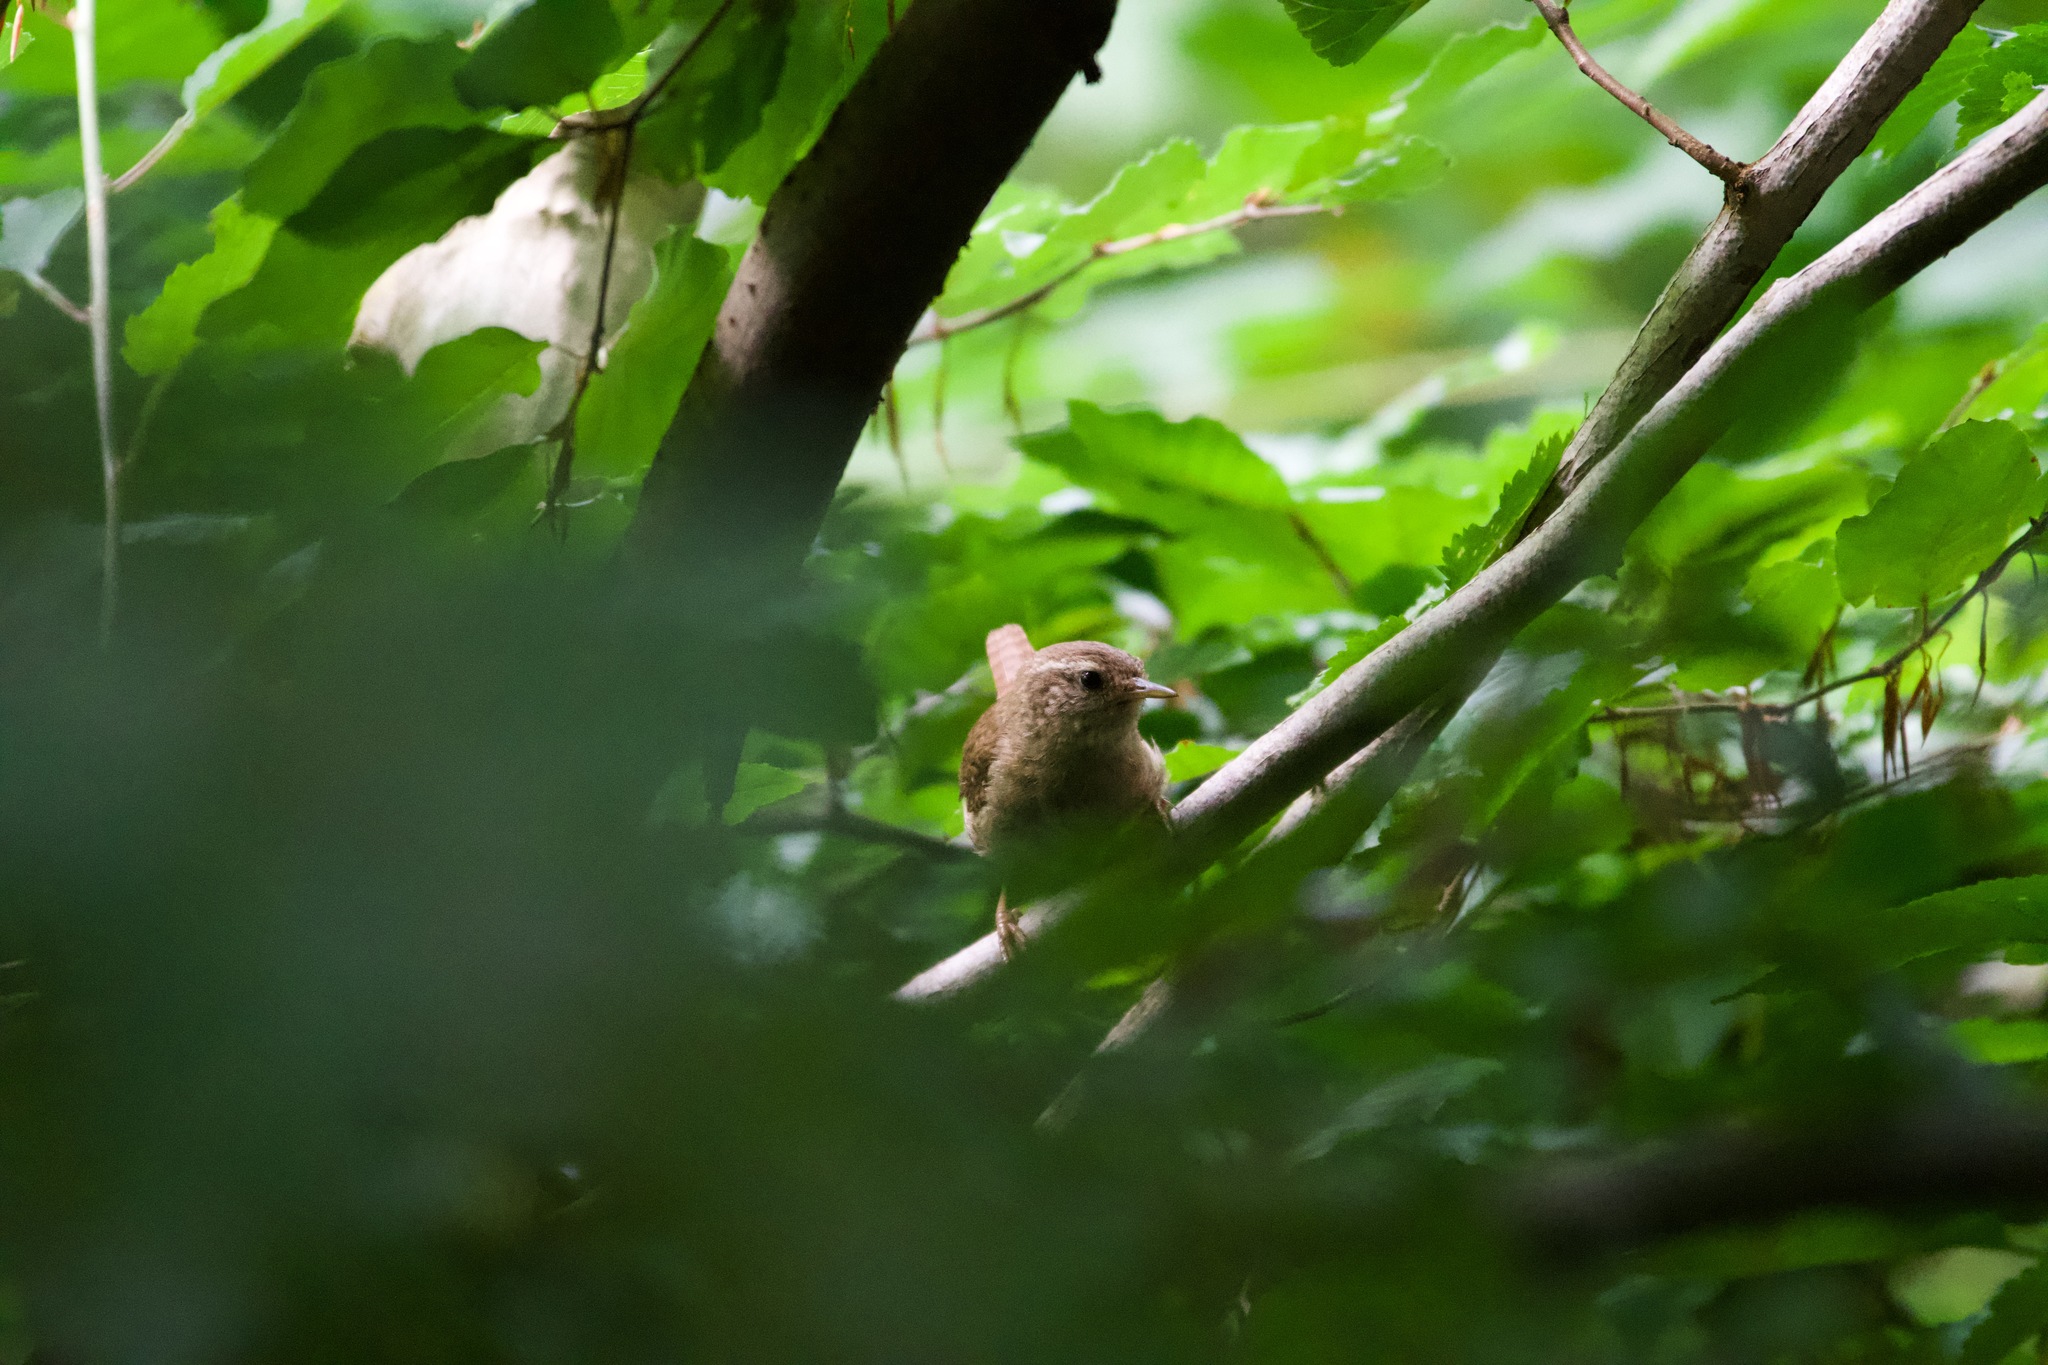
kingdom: Animalia
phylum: Chordata
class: Aves
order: Passeriformes
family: Troglodytidae
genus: Troglodytes
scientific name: Troglodytes troglodytes
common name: Eurasian wren
